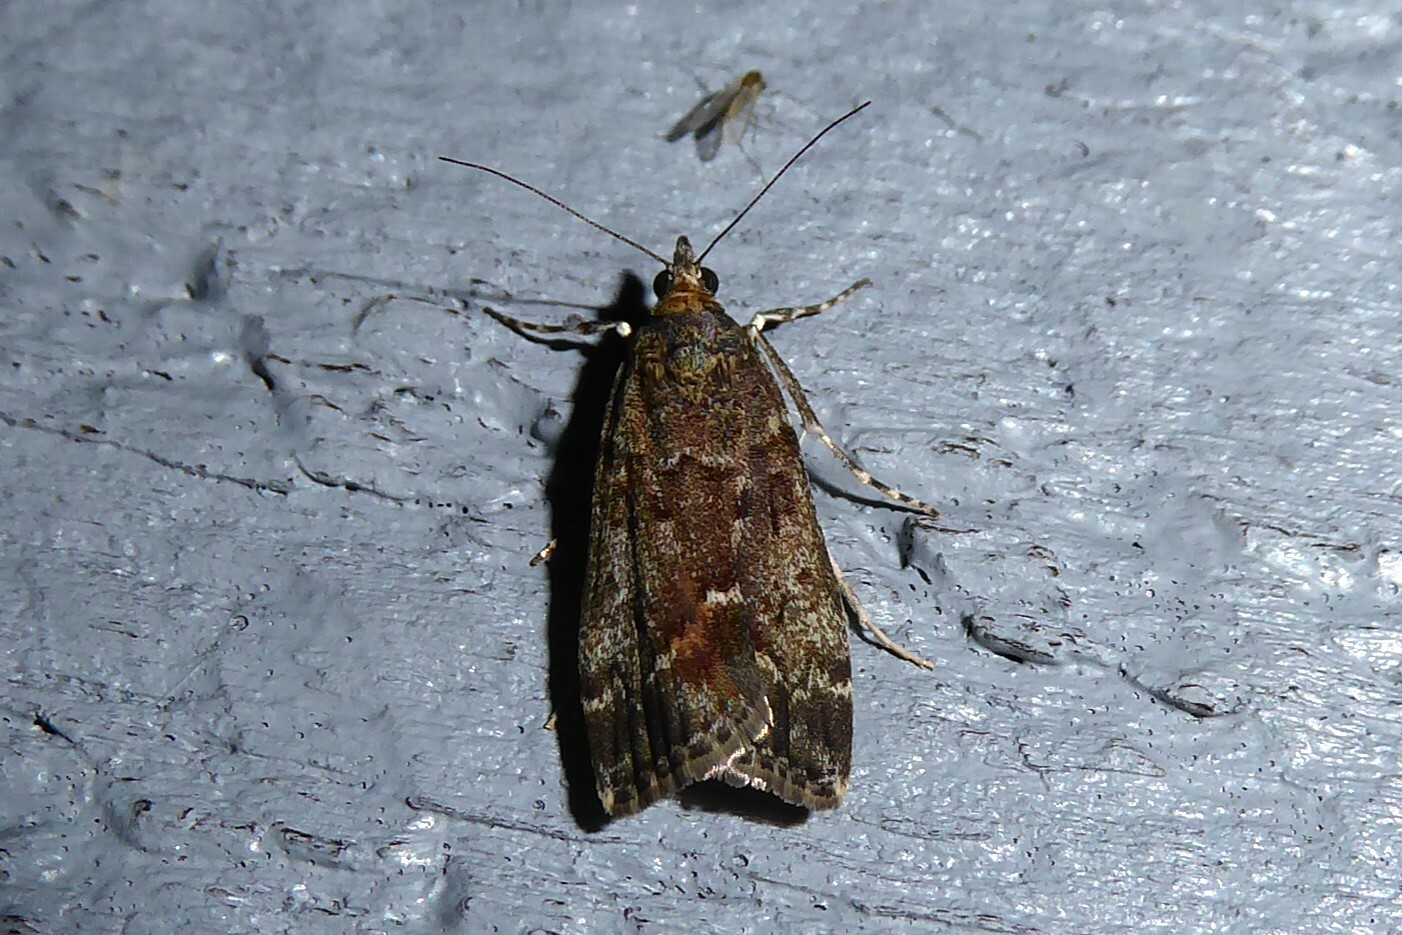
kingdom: Animalia
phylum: Arthropoda
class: Insecta
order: Lepidoptera
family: Crambidae
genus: Eudonia
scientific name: Eudonia submarginalis
